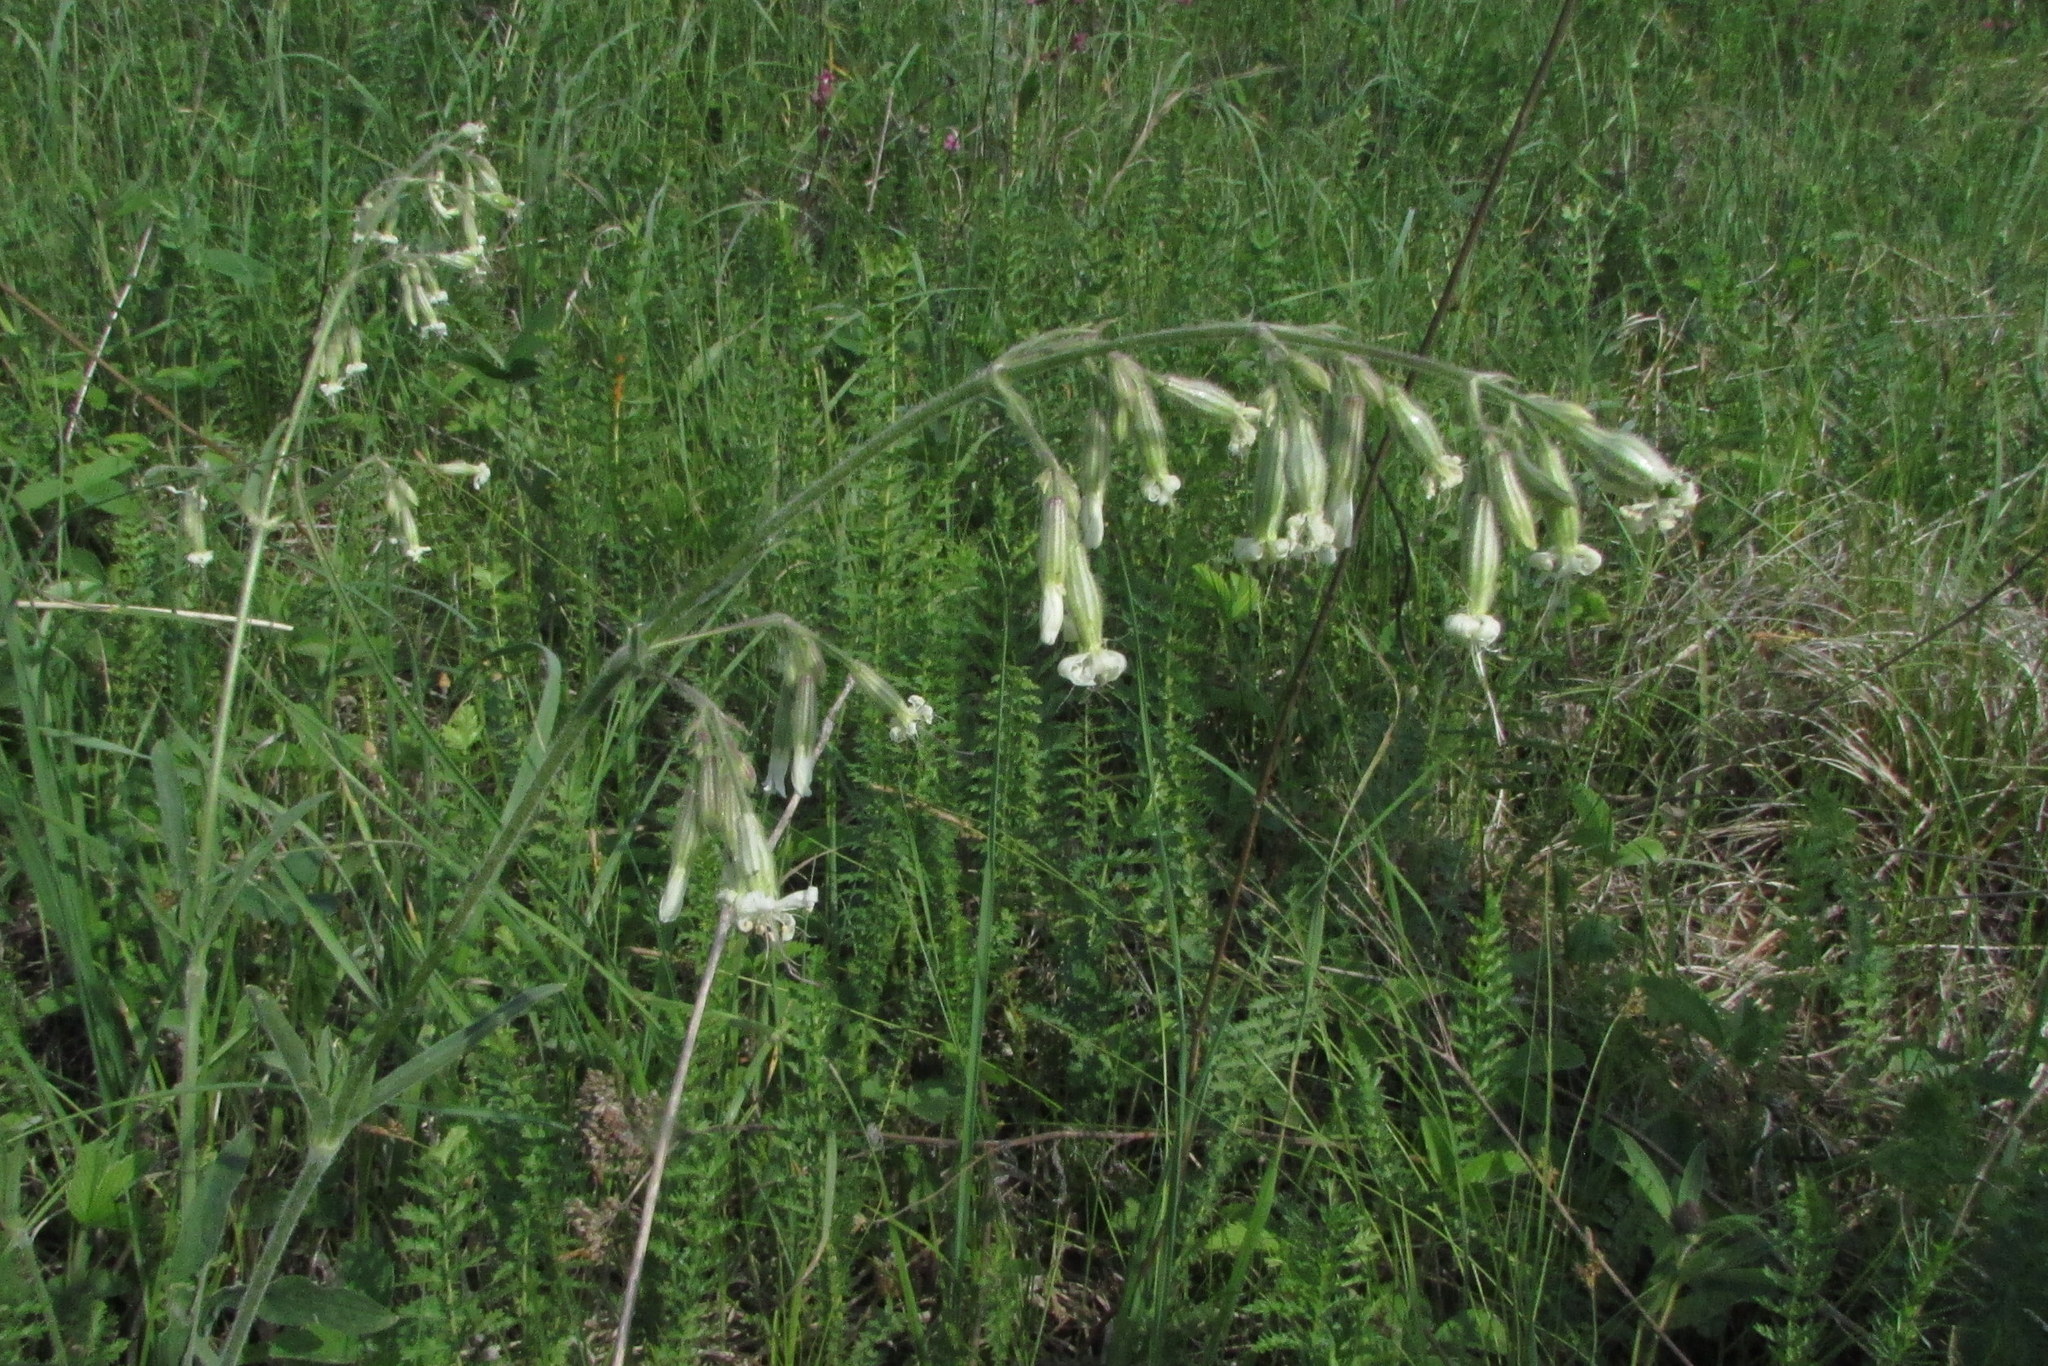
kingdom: Plantae
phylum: Tracheophyta
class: Magnoliopsida
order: Caryophyllales
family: Caryophyllaceae
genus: Silene
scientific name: Silene nutans
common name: Nottingham catchfly
